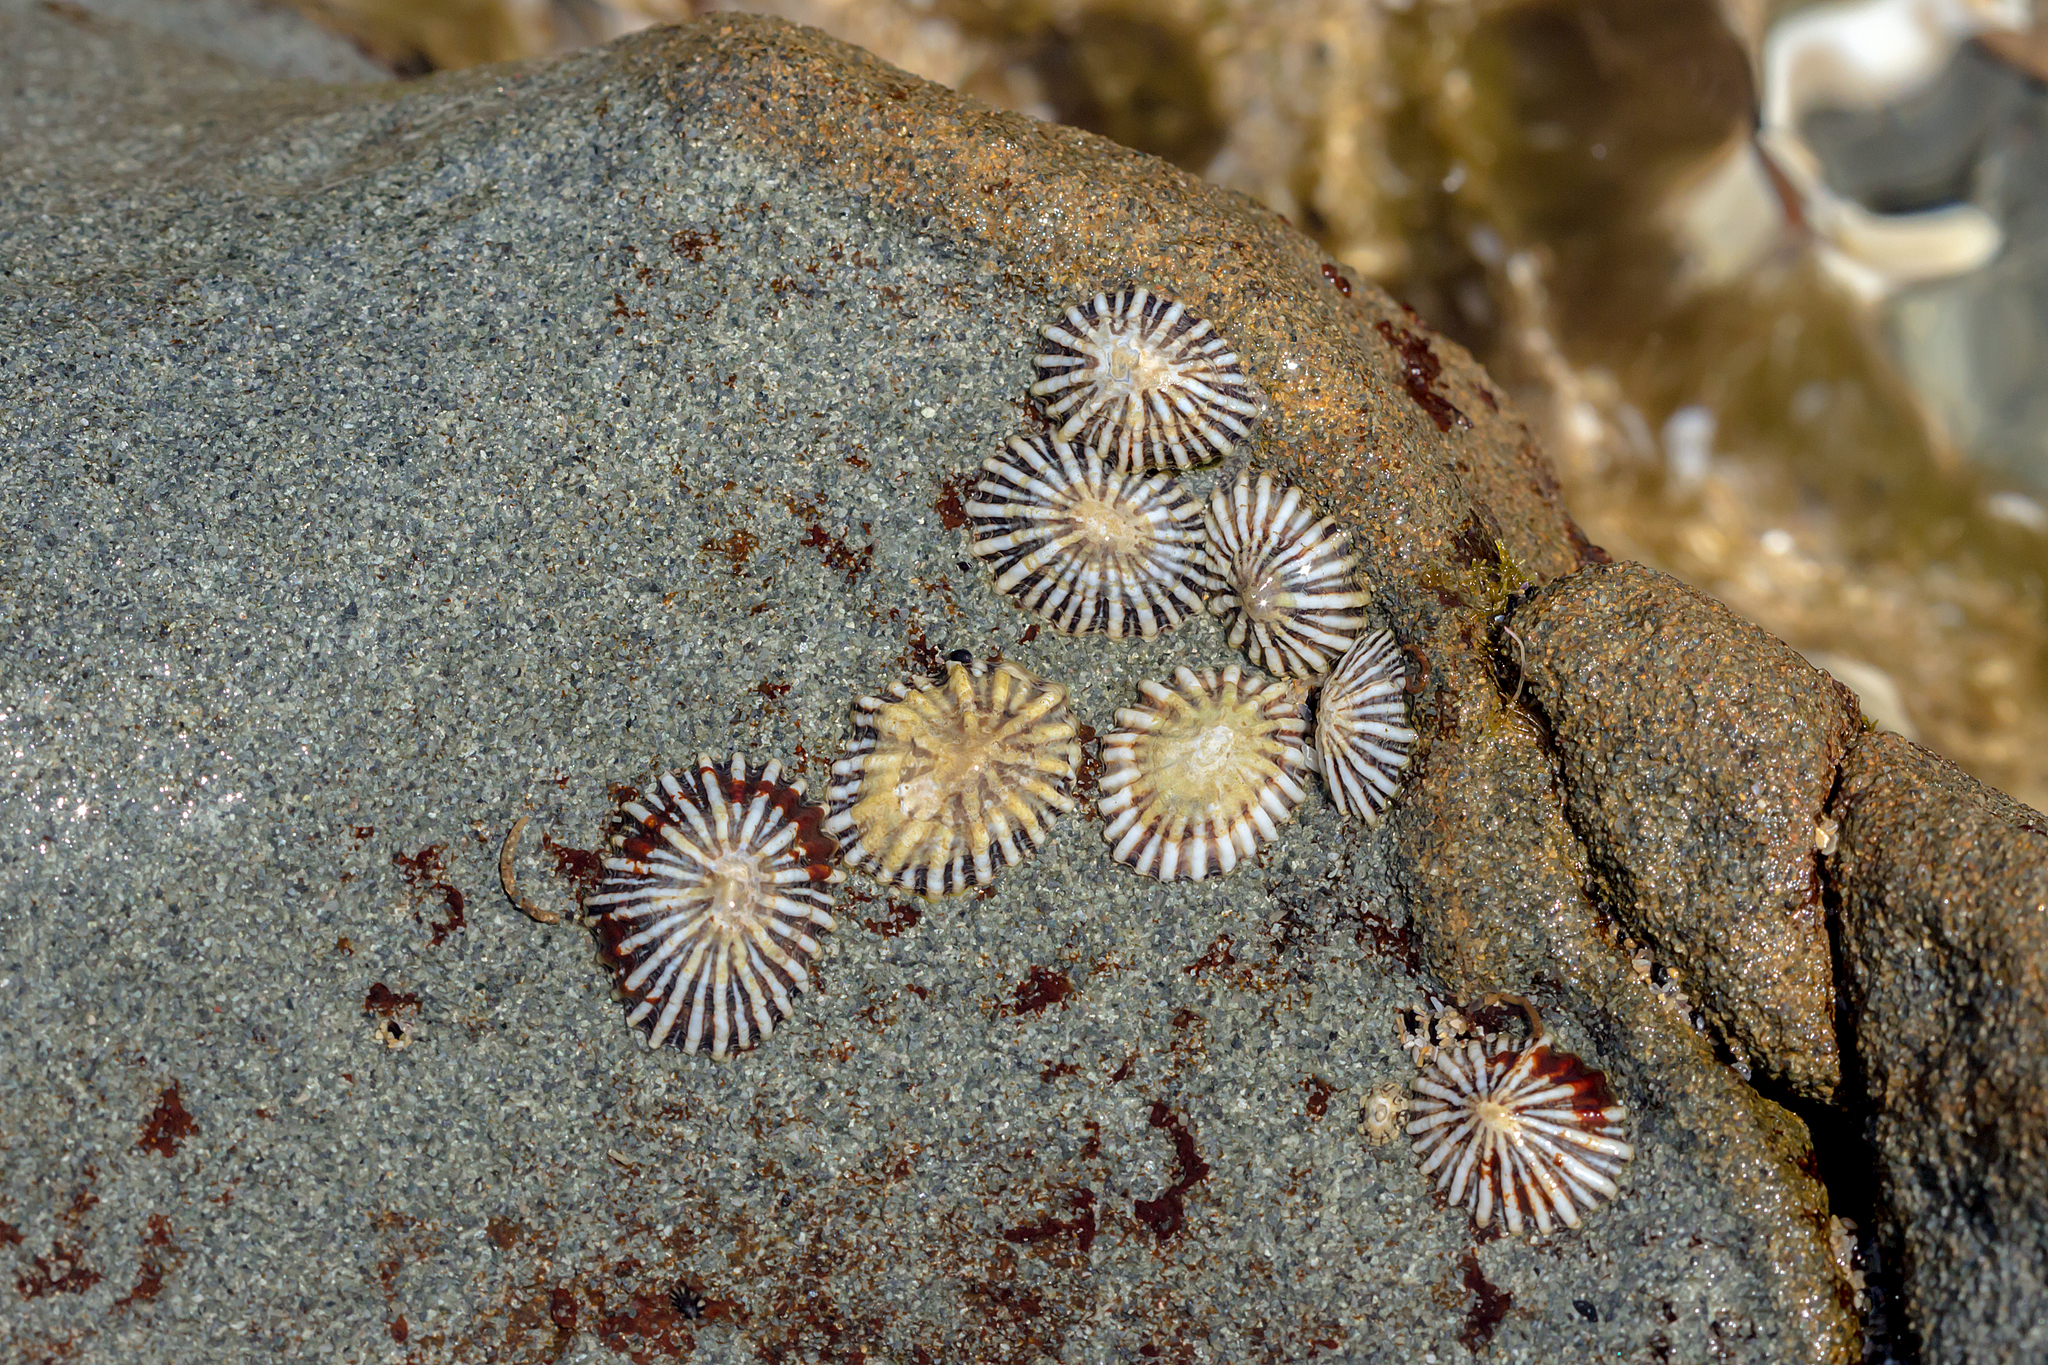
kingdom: Animalia
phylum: Mollusca
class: Gastropoda
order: Siphonariida
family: Siphonariidae
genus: Siphonaria
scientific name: Siphonaria diemenensis
